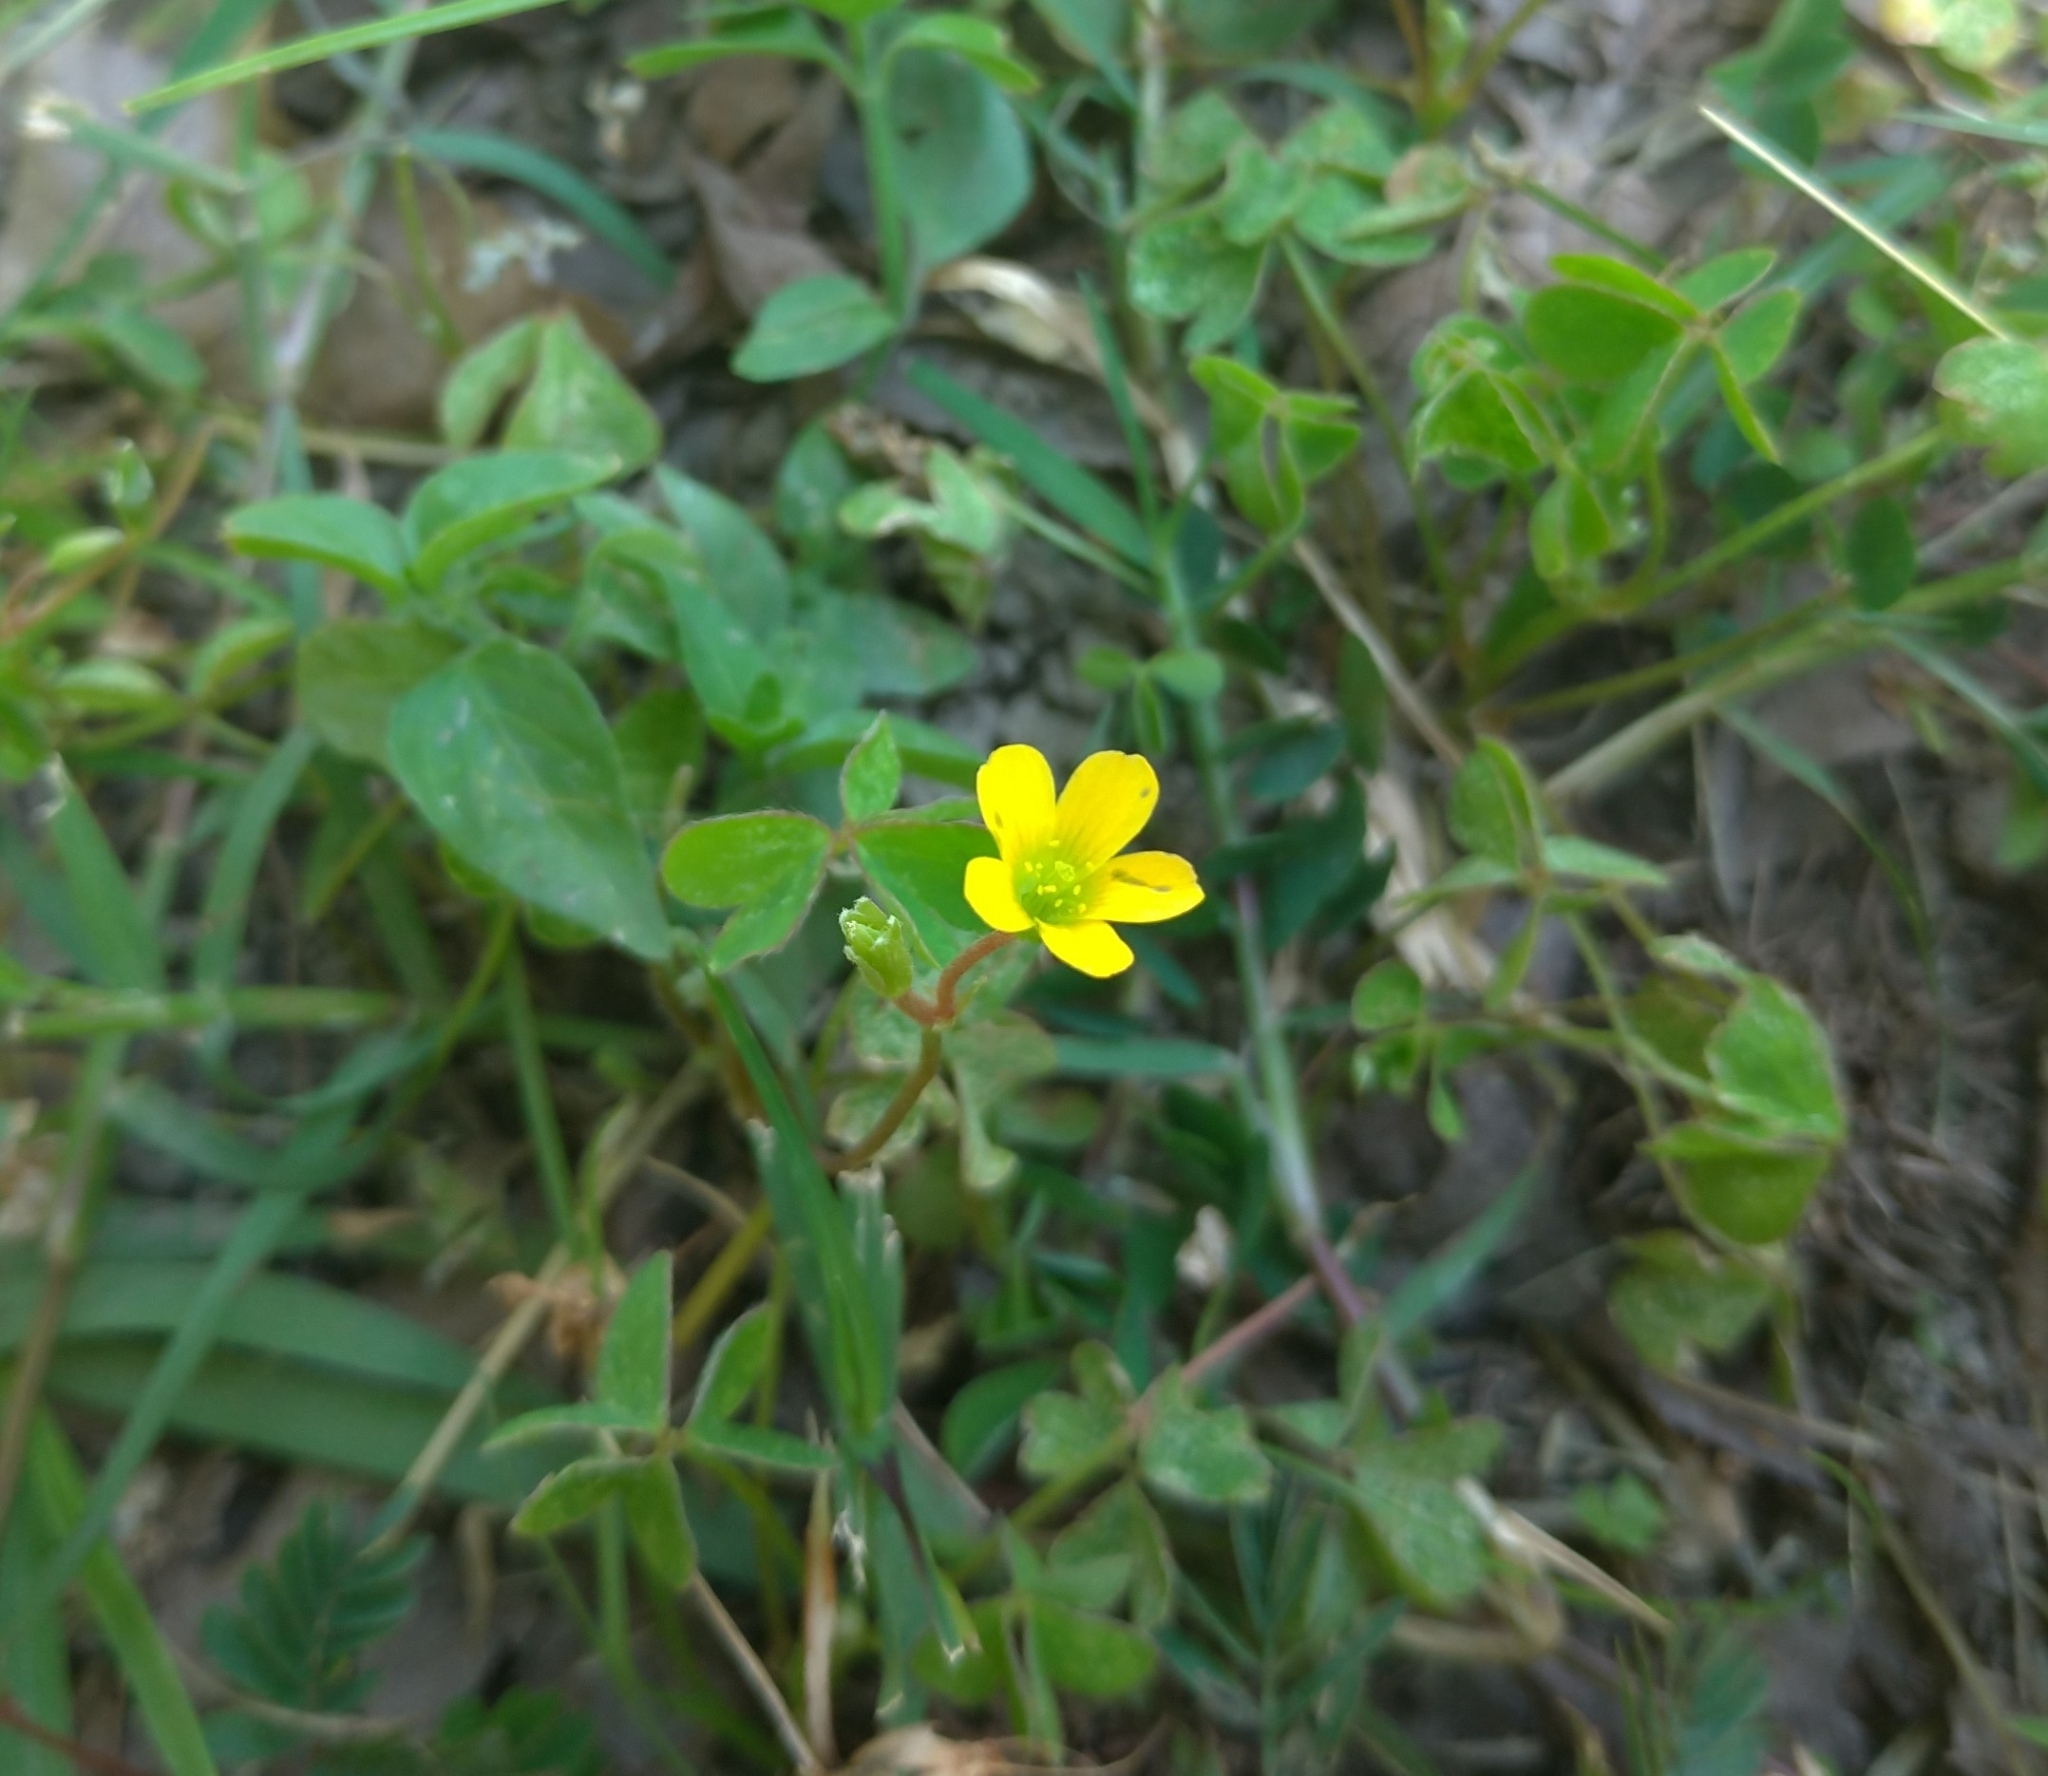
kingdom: Plantae
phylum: Tracheophyta
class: Magnoliopsida
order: Oxalidales
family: Oxalidaceae
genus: Oxalis
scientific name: Oxalis corniculata
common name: Procumbent yellow-sorrel
